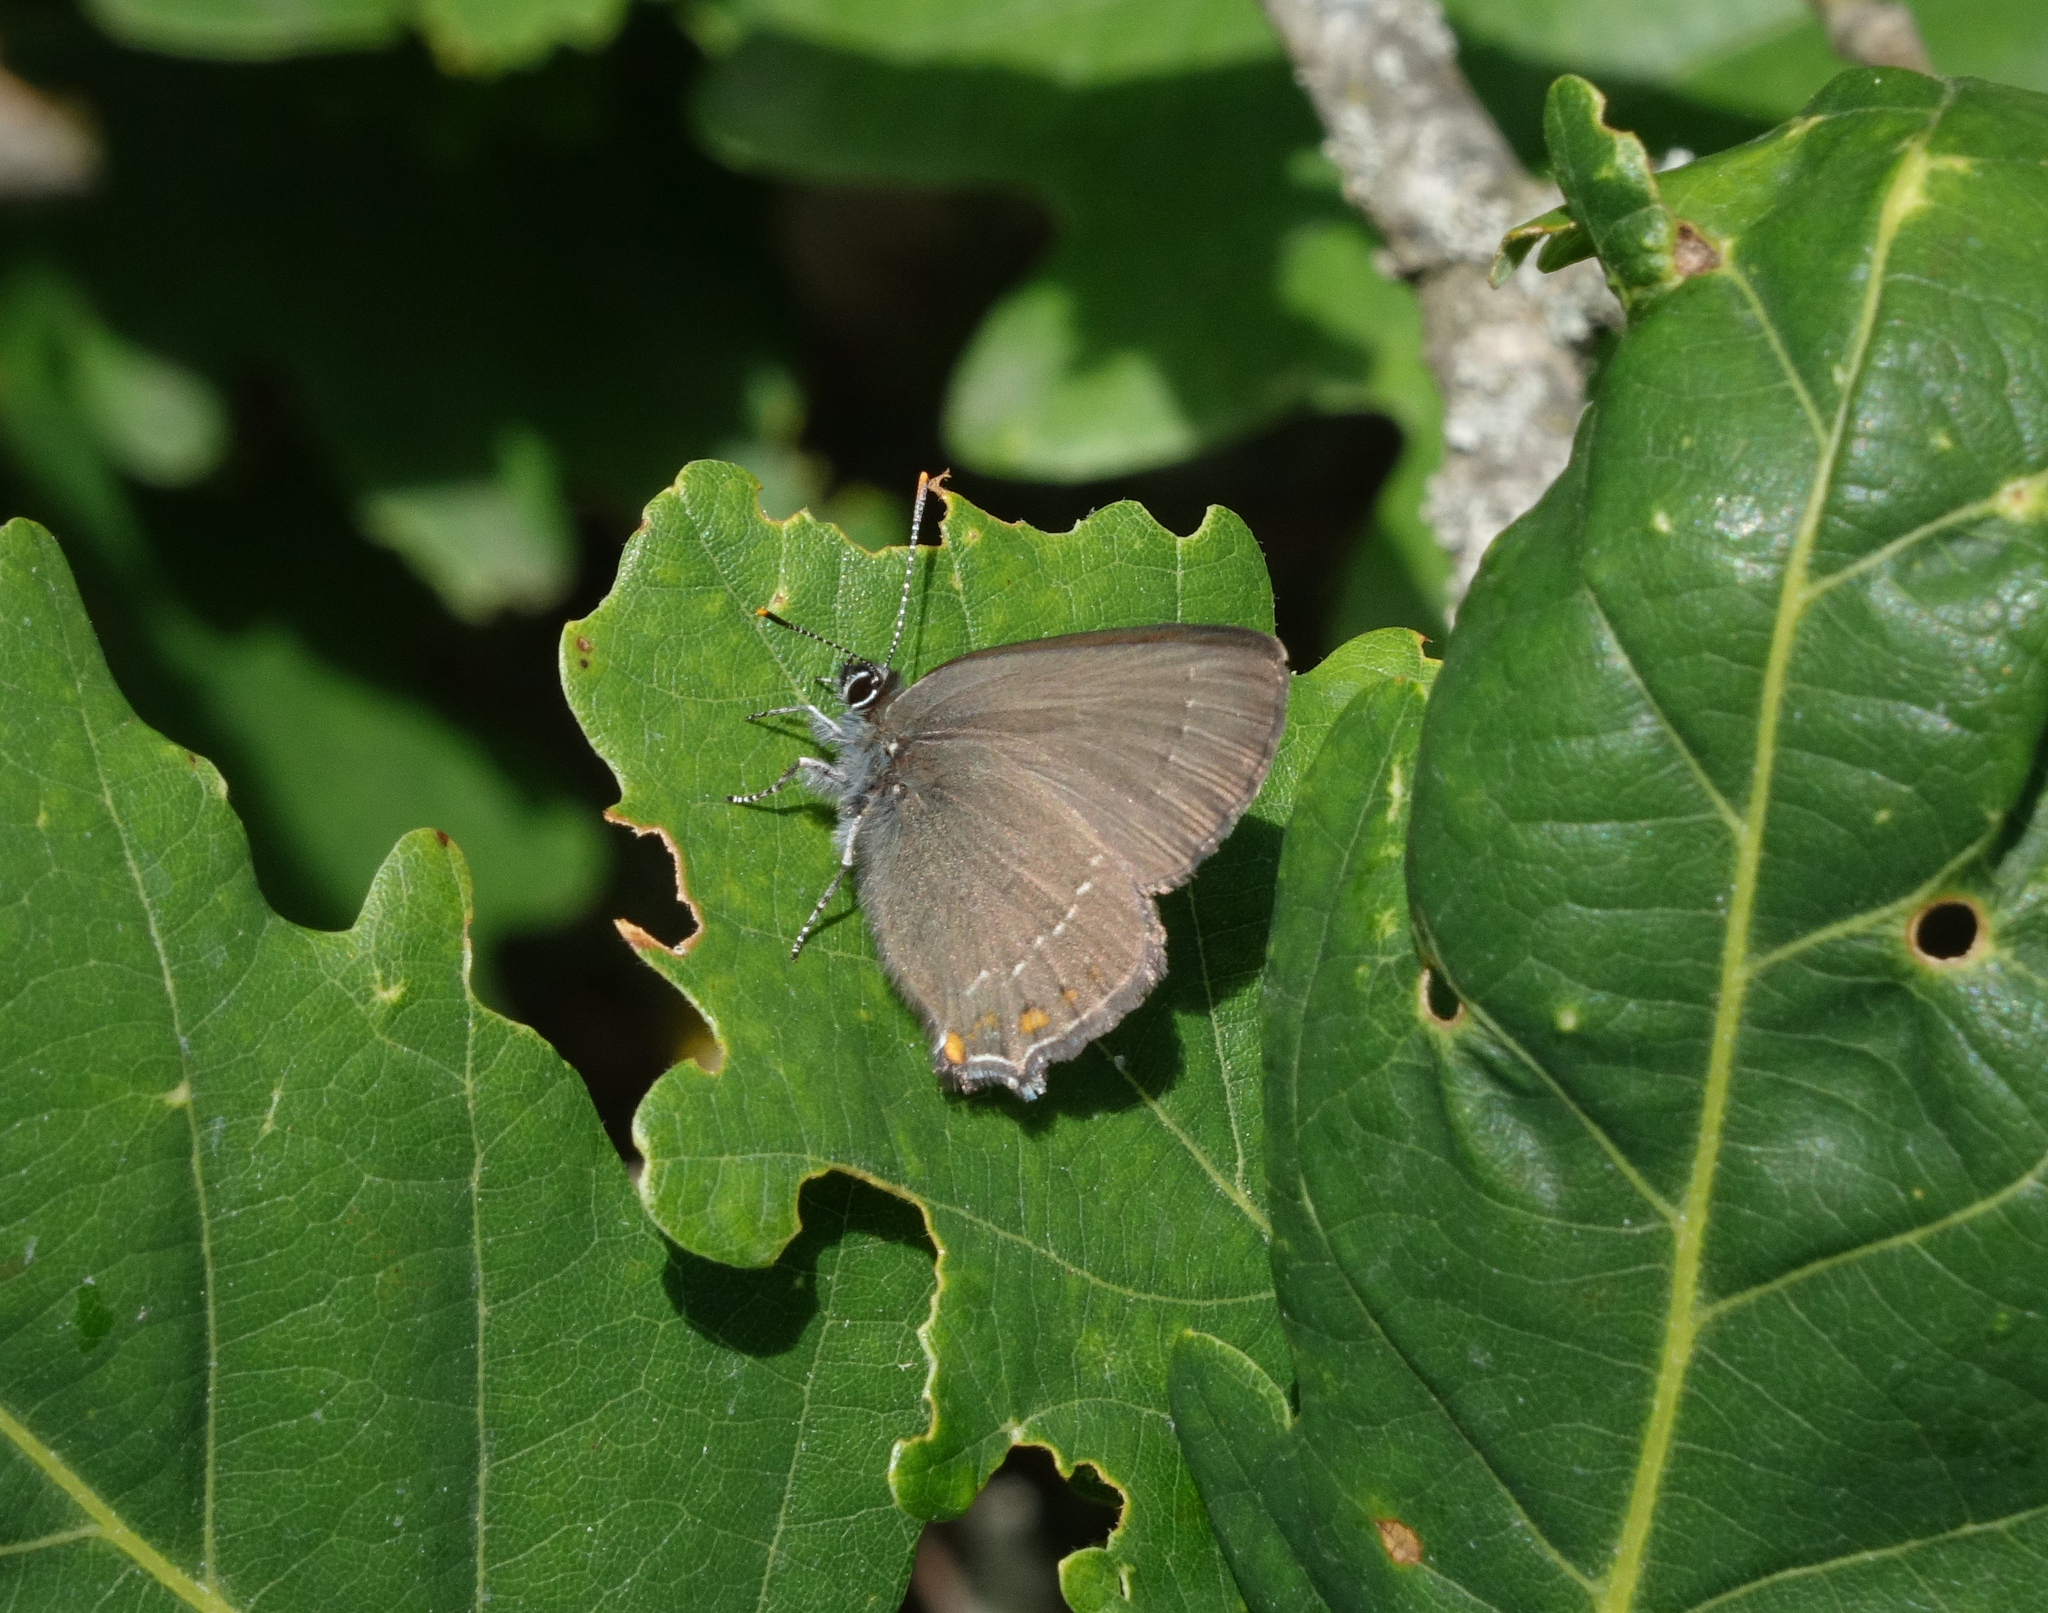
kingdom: Animalia
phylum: Arthropoda
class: Insecta
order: Lepidoptera
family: Lycaenidae
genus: Nordmannia
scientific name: Nordmannia ilicis
